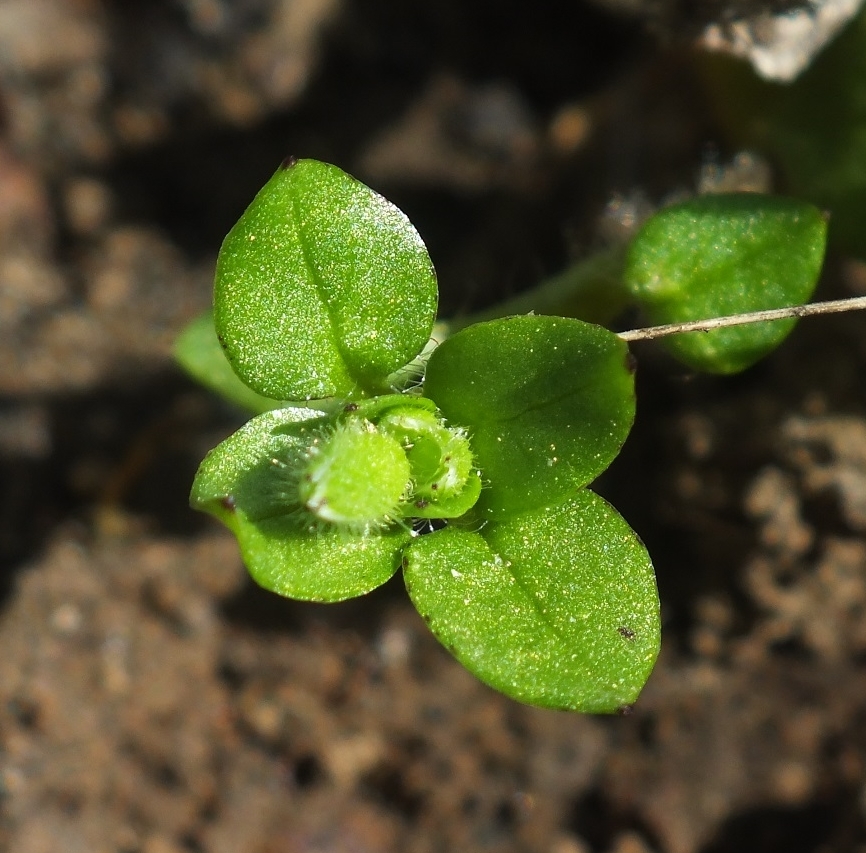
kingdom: Plantae
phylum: Tracheophyta
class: Magnoliopsida
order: Caryophyllales
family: Caryophyllaceae
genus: Stellaria
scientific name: Stellaria media
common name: Common chickweed
